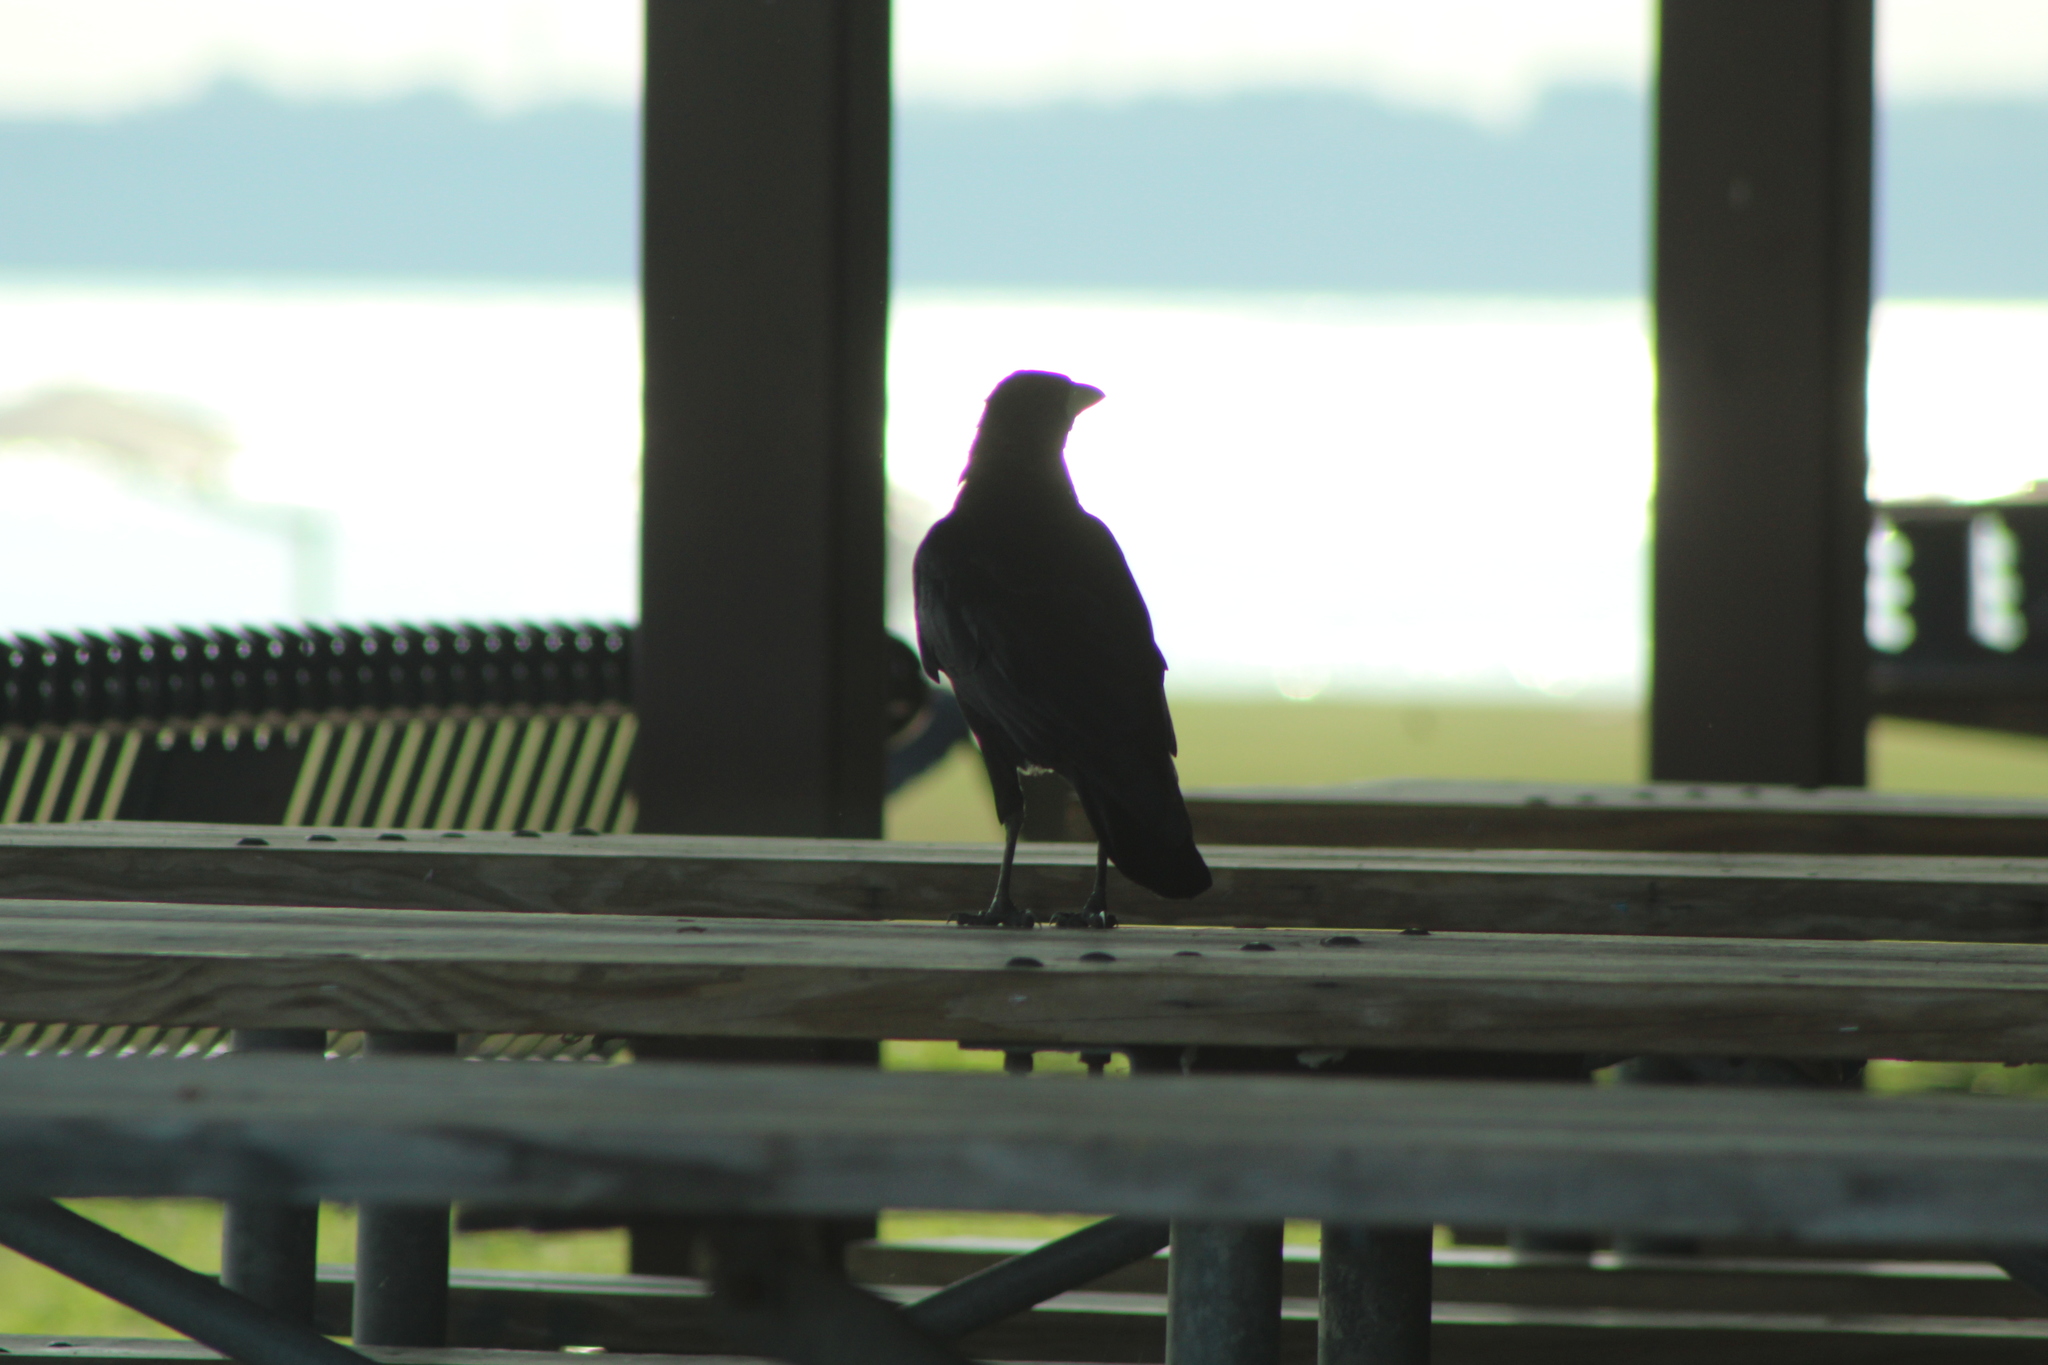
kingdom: Animalia
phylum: Chordata
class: Aves
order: Passeriformes
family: Corvidae
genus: Corvus
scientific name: Corvus brachyrhynchos
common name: American crow
